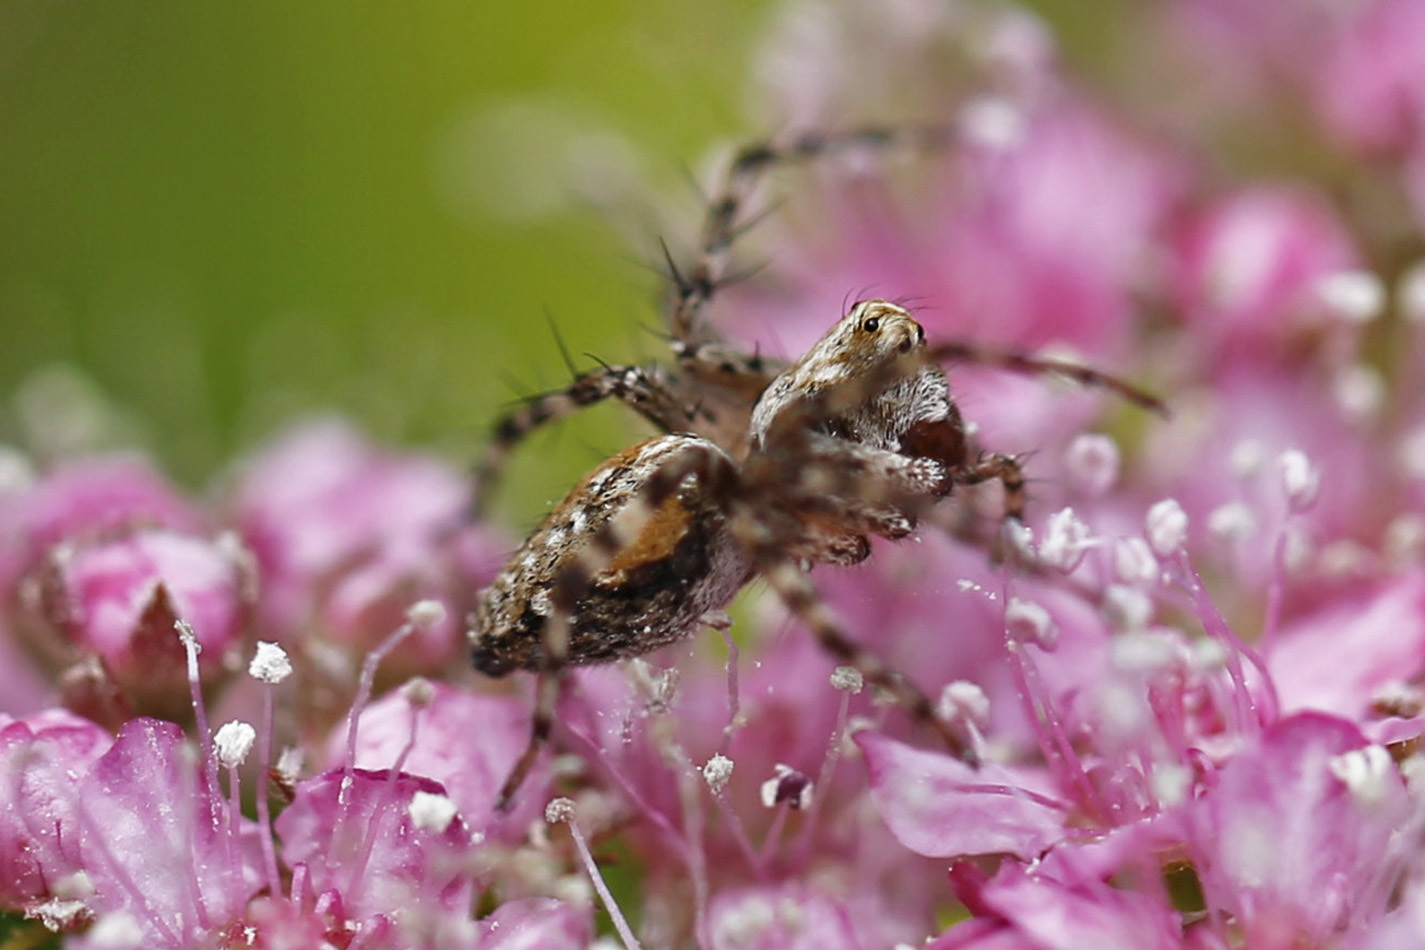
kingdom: Animalia
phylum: Arthropoda
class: Arachnida
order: Araneae
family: Oxyopidae
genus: Oxyopes
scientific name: Oxyopes scalaris
